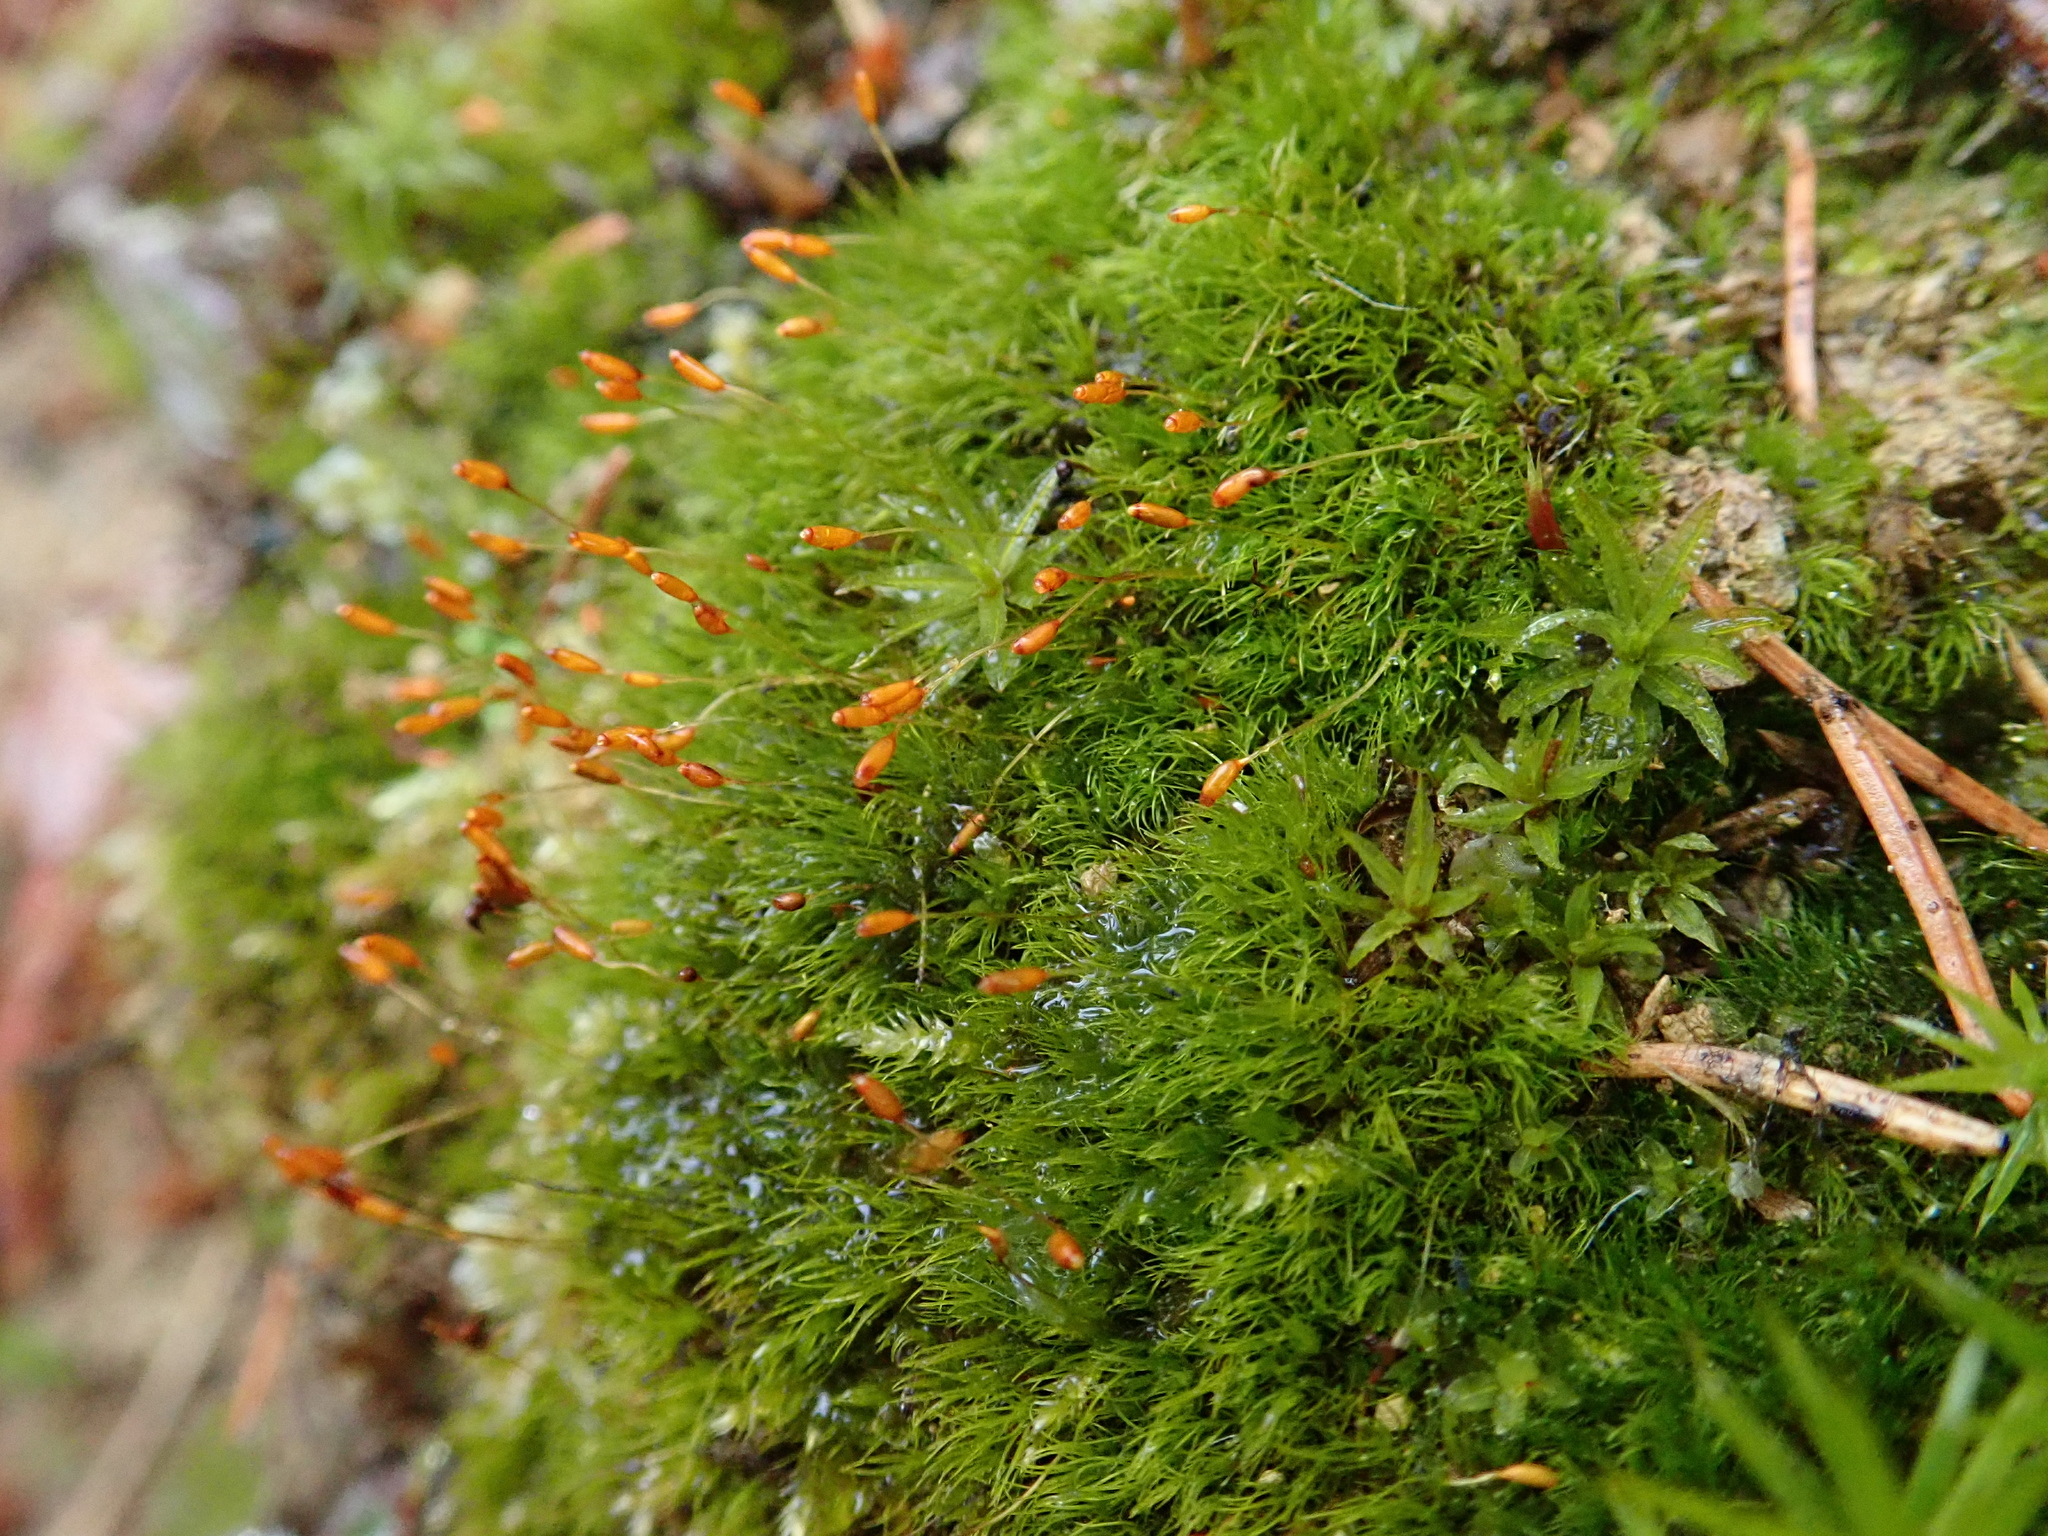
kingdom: Plantae
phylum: Bryophyta
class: Bryopsida
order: Dicranales
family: Dicranellaceae
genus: Dicranella
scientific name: Dicranella heteromalla
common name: Silky forklet moss
